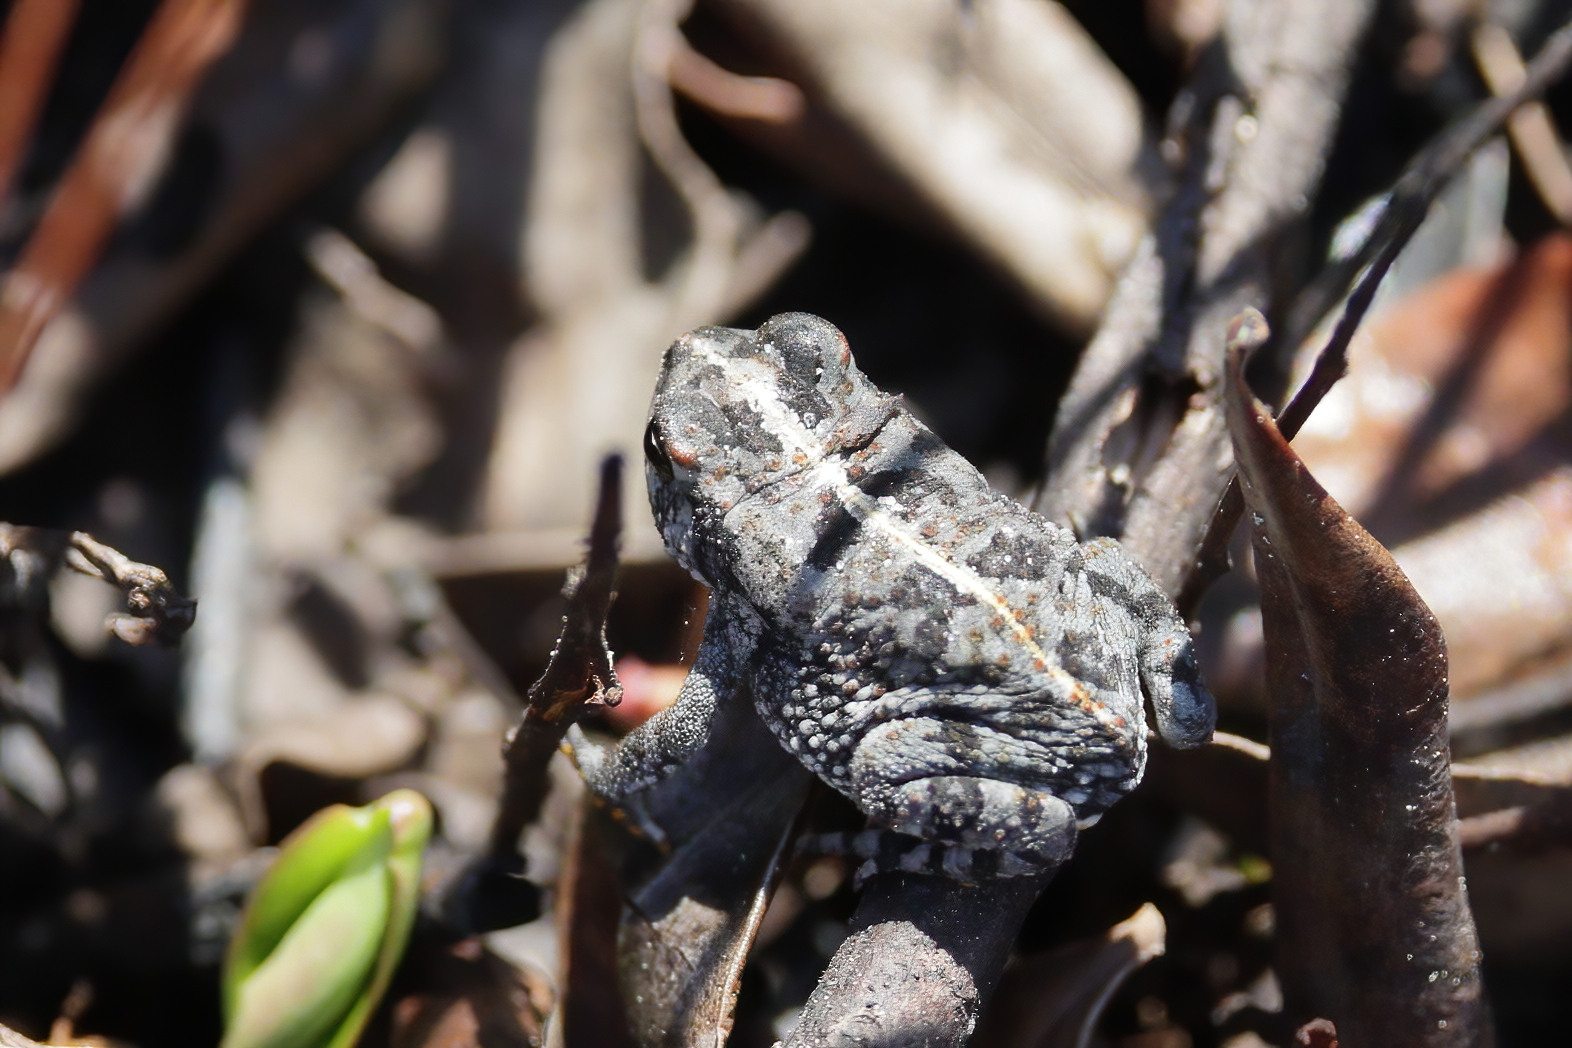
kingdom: Animalia
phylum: Chordata
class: Amphibia
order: Anura
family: Bufonidae
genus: Anaxyrus
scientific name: Anaxyrus quercicus
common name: Oak toad
